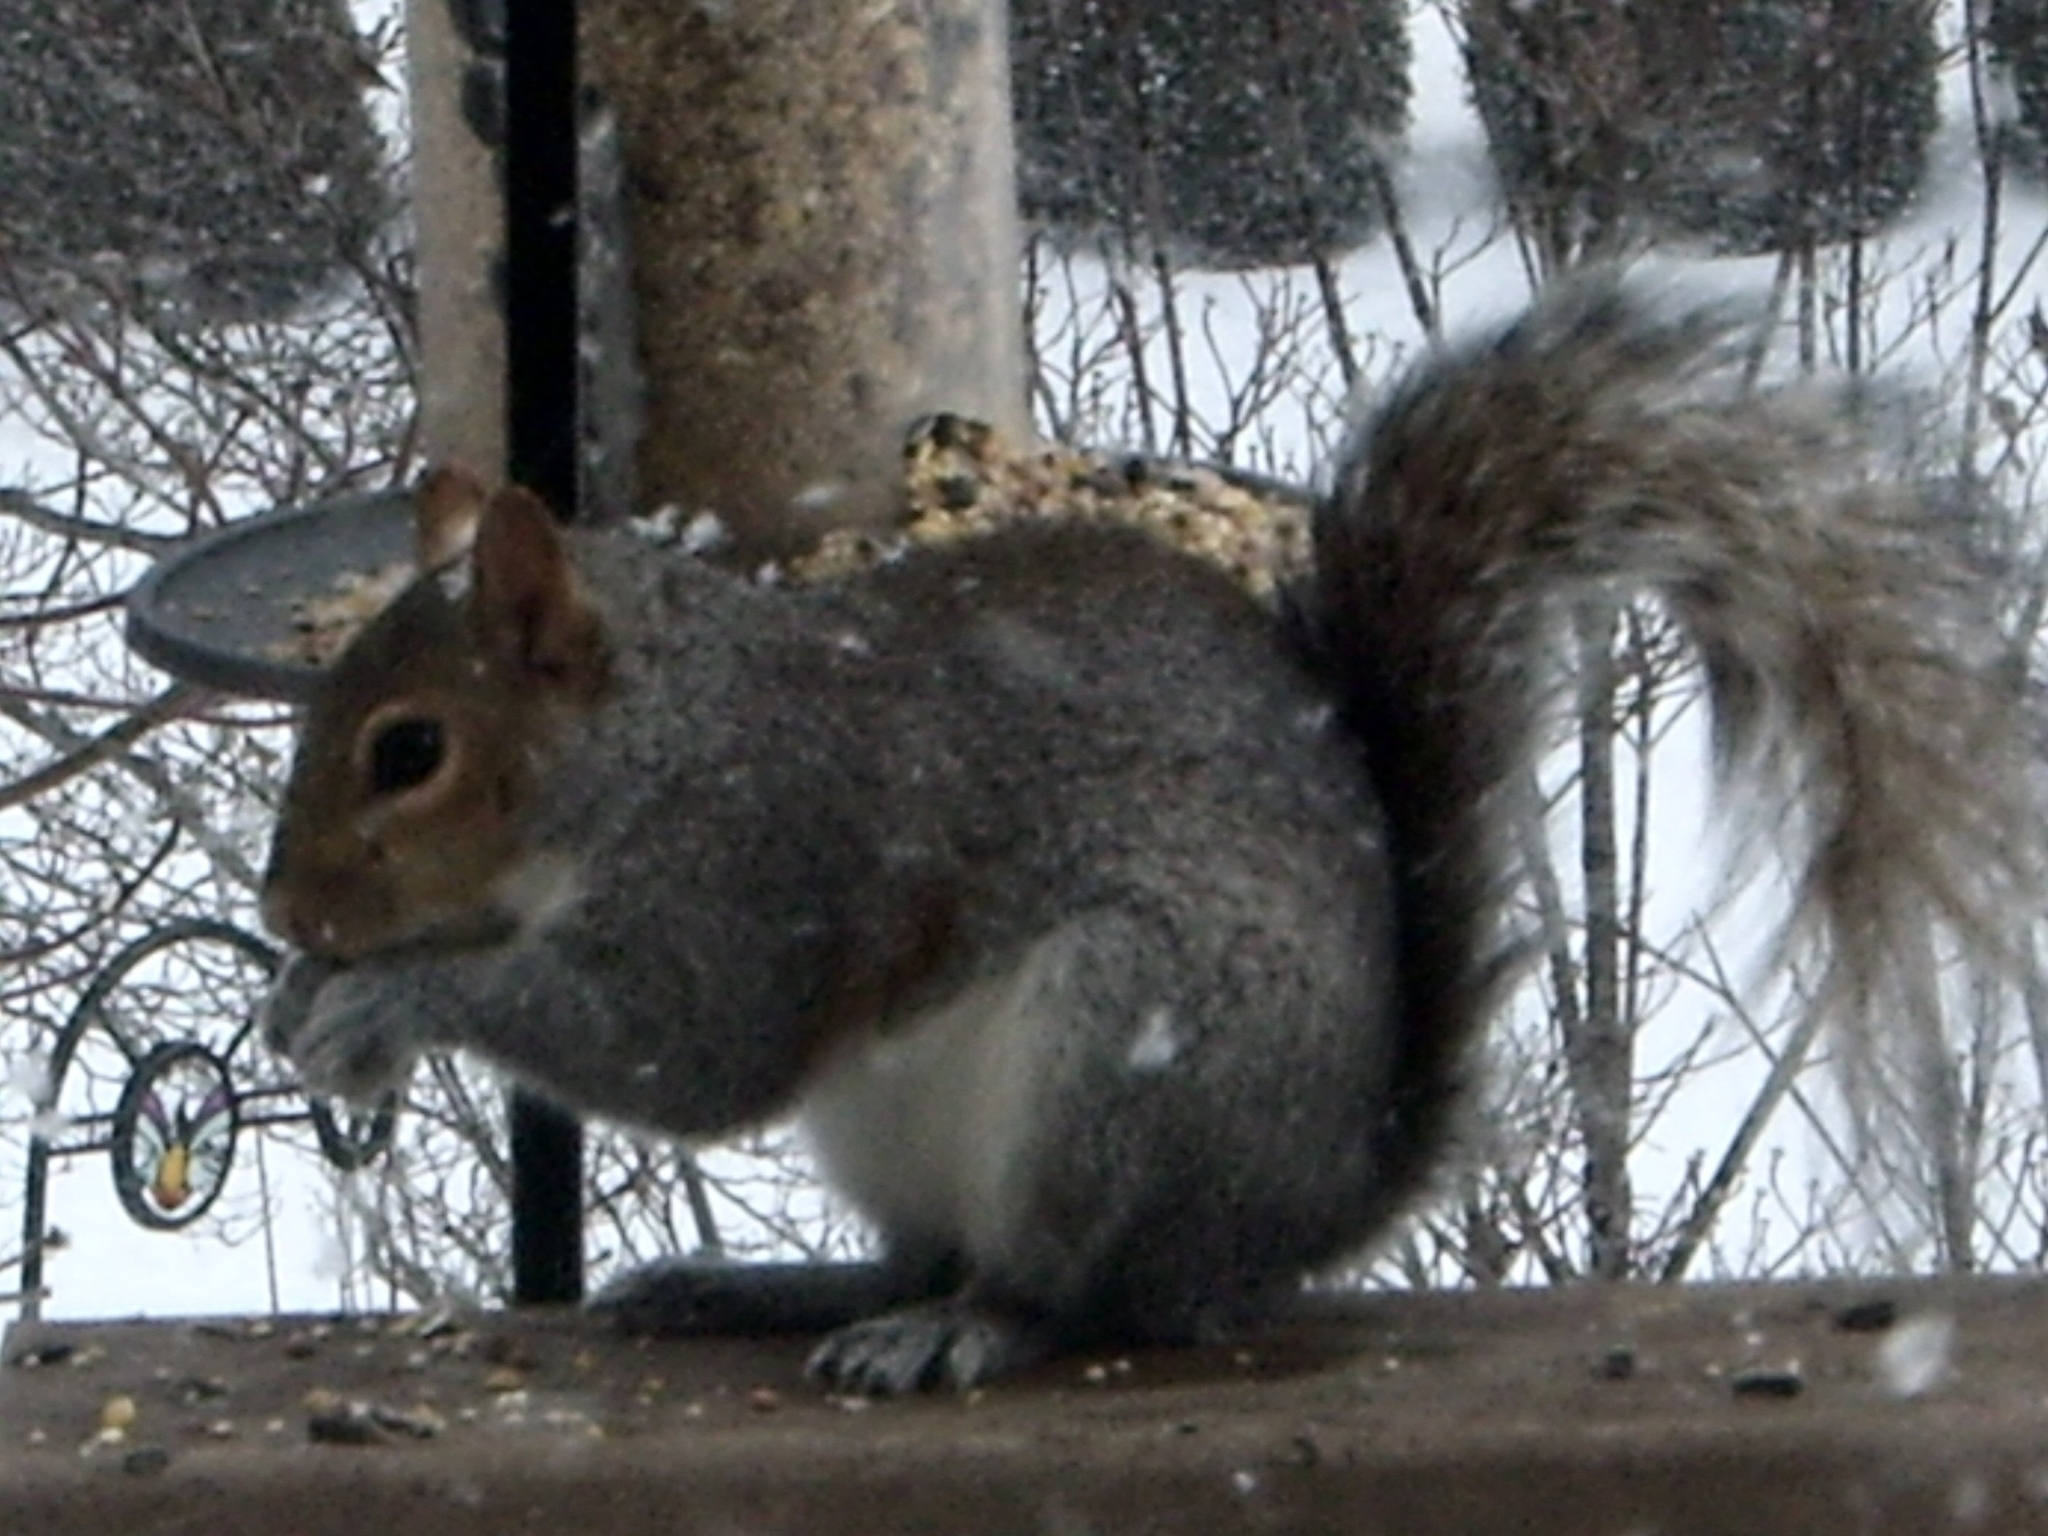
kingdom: Animalia
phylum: Chordata
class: Mammalia
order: Rodentia
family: Sciuridae
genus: Sciurus
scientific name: Sciurus carolinensis
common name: Eastern gray squirrel
